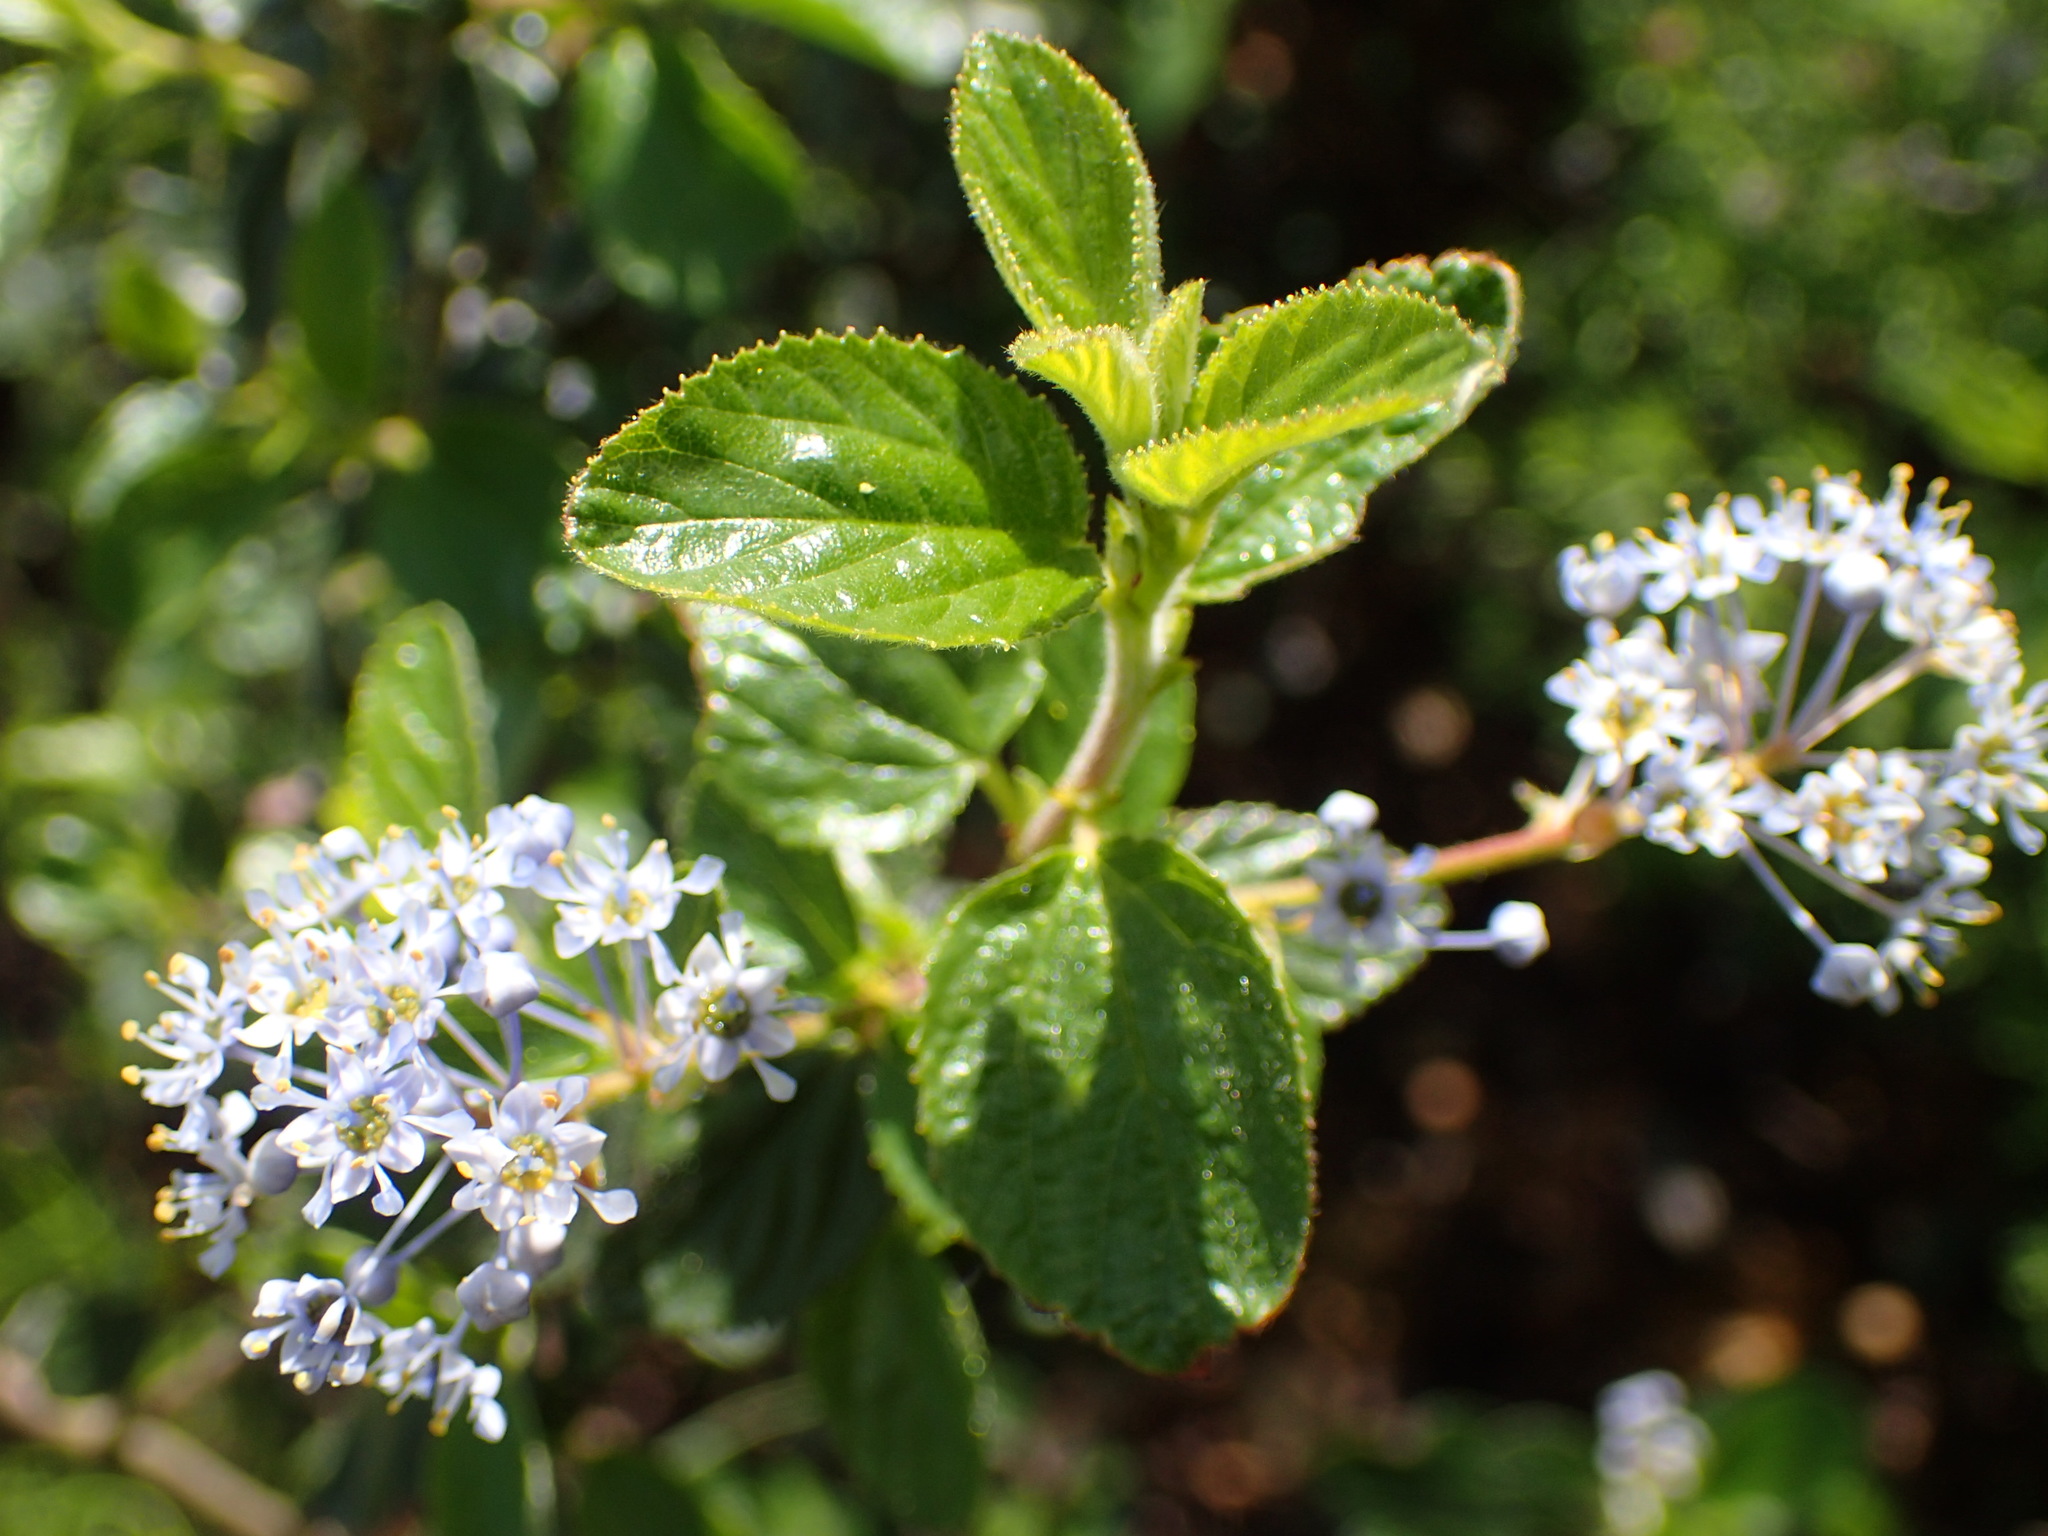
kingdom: Plantae
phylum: Tracheophyta
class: Magnoliopsida
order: Rosales
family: Rhamnaceae
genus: Ceanothus
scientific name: Ceanothus oliganthus
